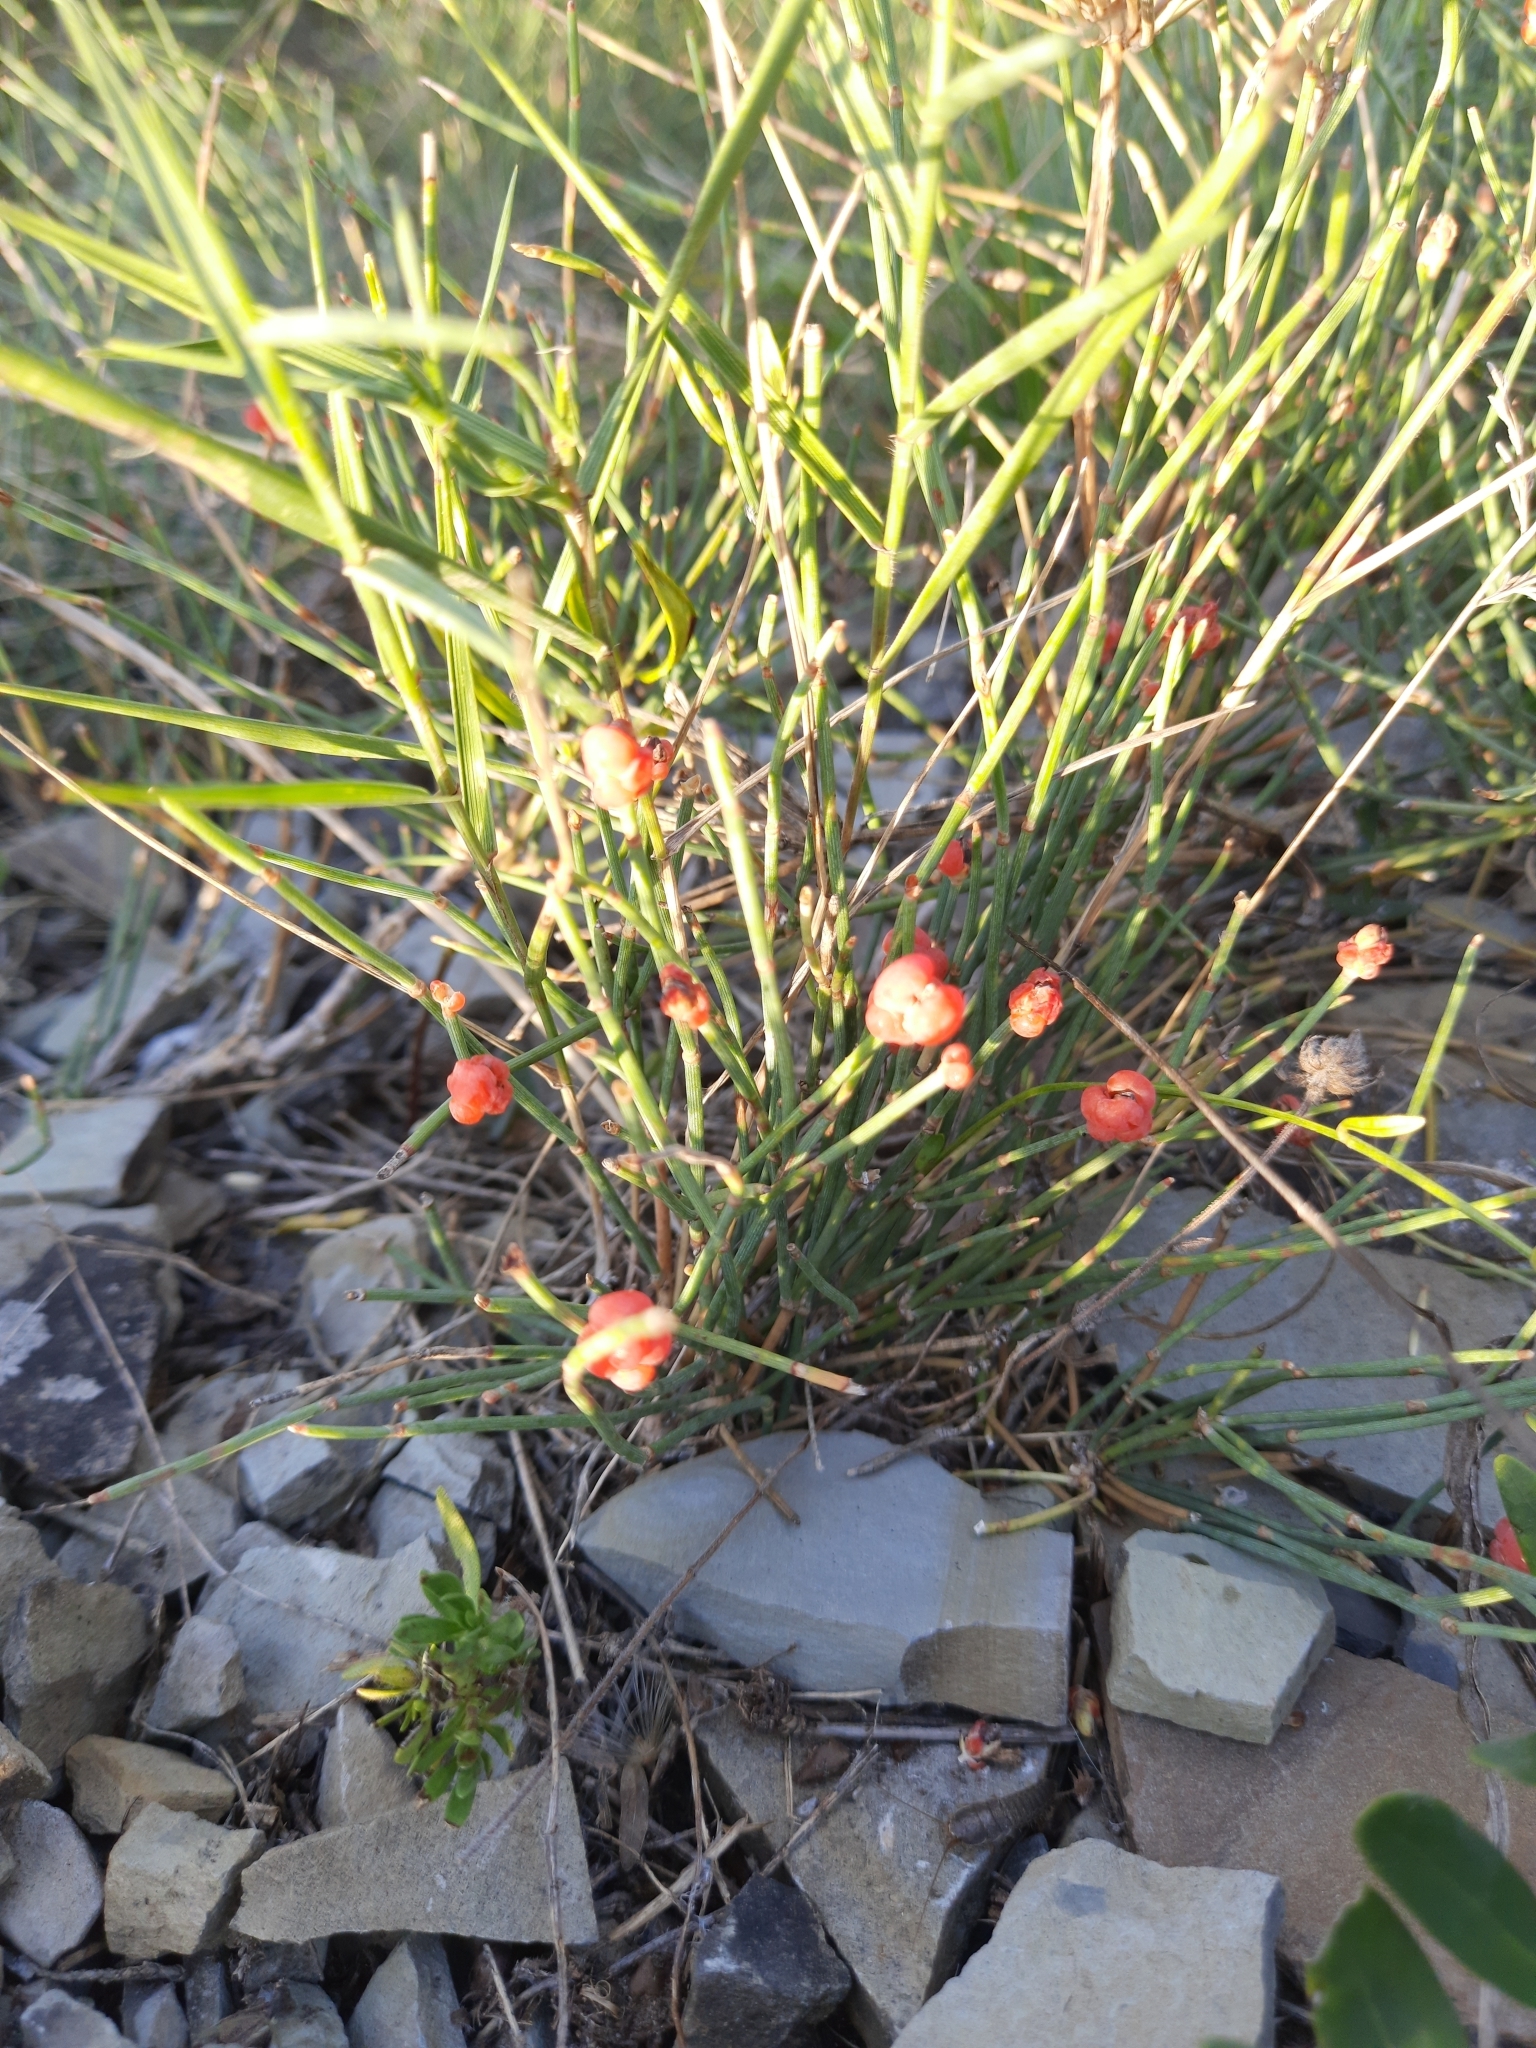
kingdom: Plantae
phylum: Tracheophyta
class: Gnetopsida
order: Ephedrales
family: Ephedraceae
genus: Ephedra
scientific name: Ephedra distachya
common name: Sea grape
